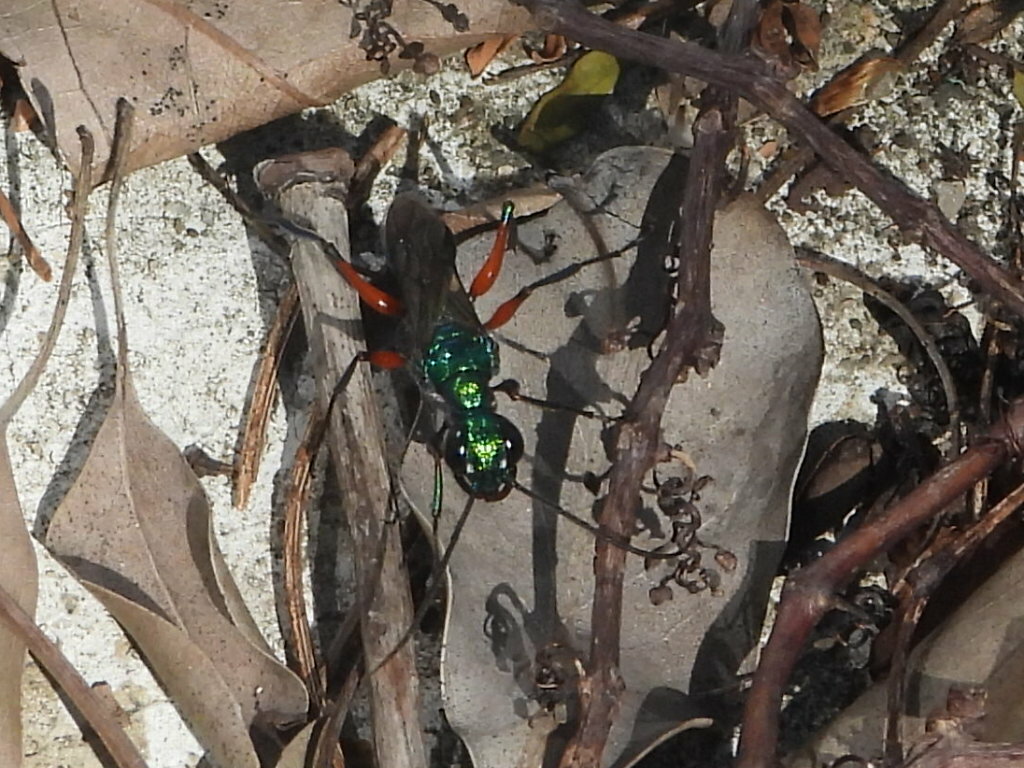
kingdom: Animalia
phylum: Arthropoda
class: Insecta
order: Hymenoptera
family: Ampulicidae
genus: Ampulex
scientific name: Ampulex compressa
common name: Emerald cockroach wasp
